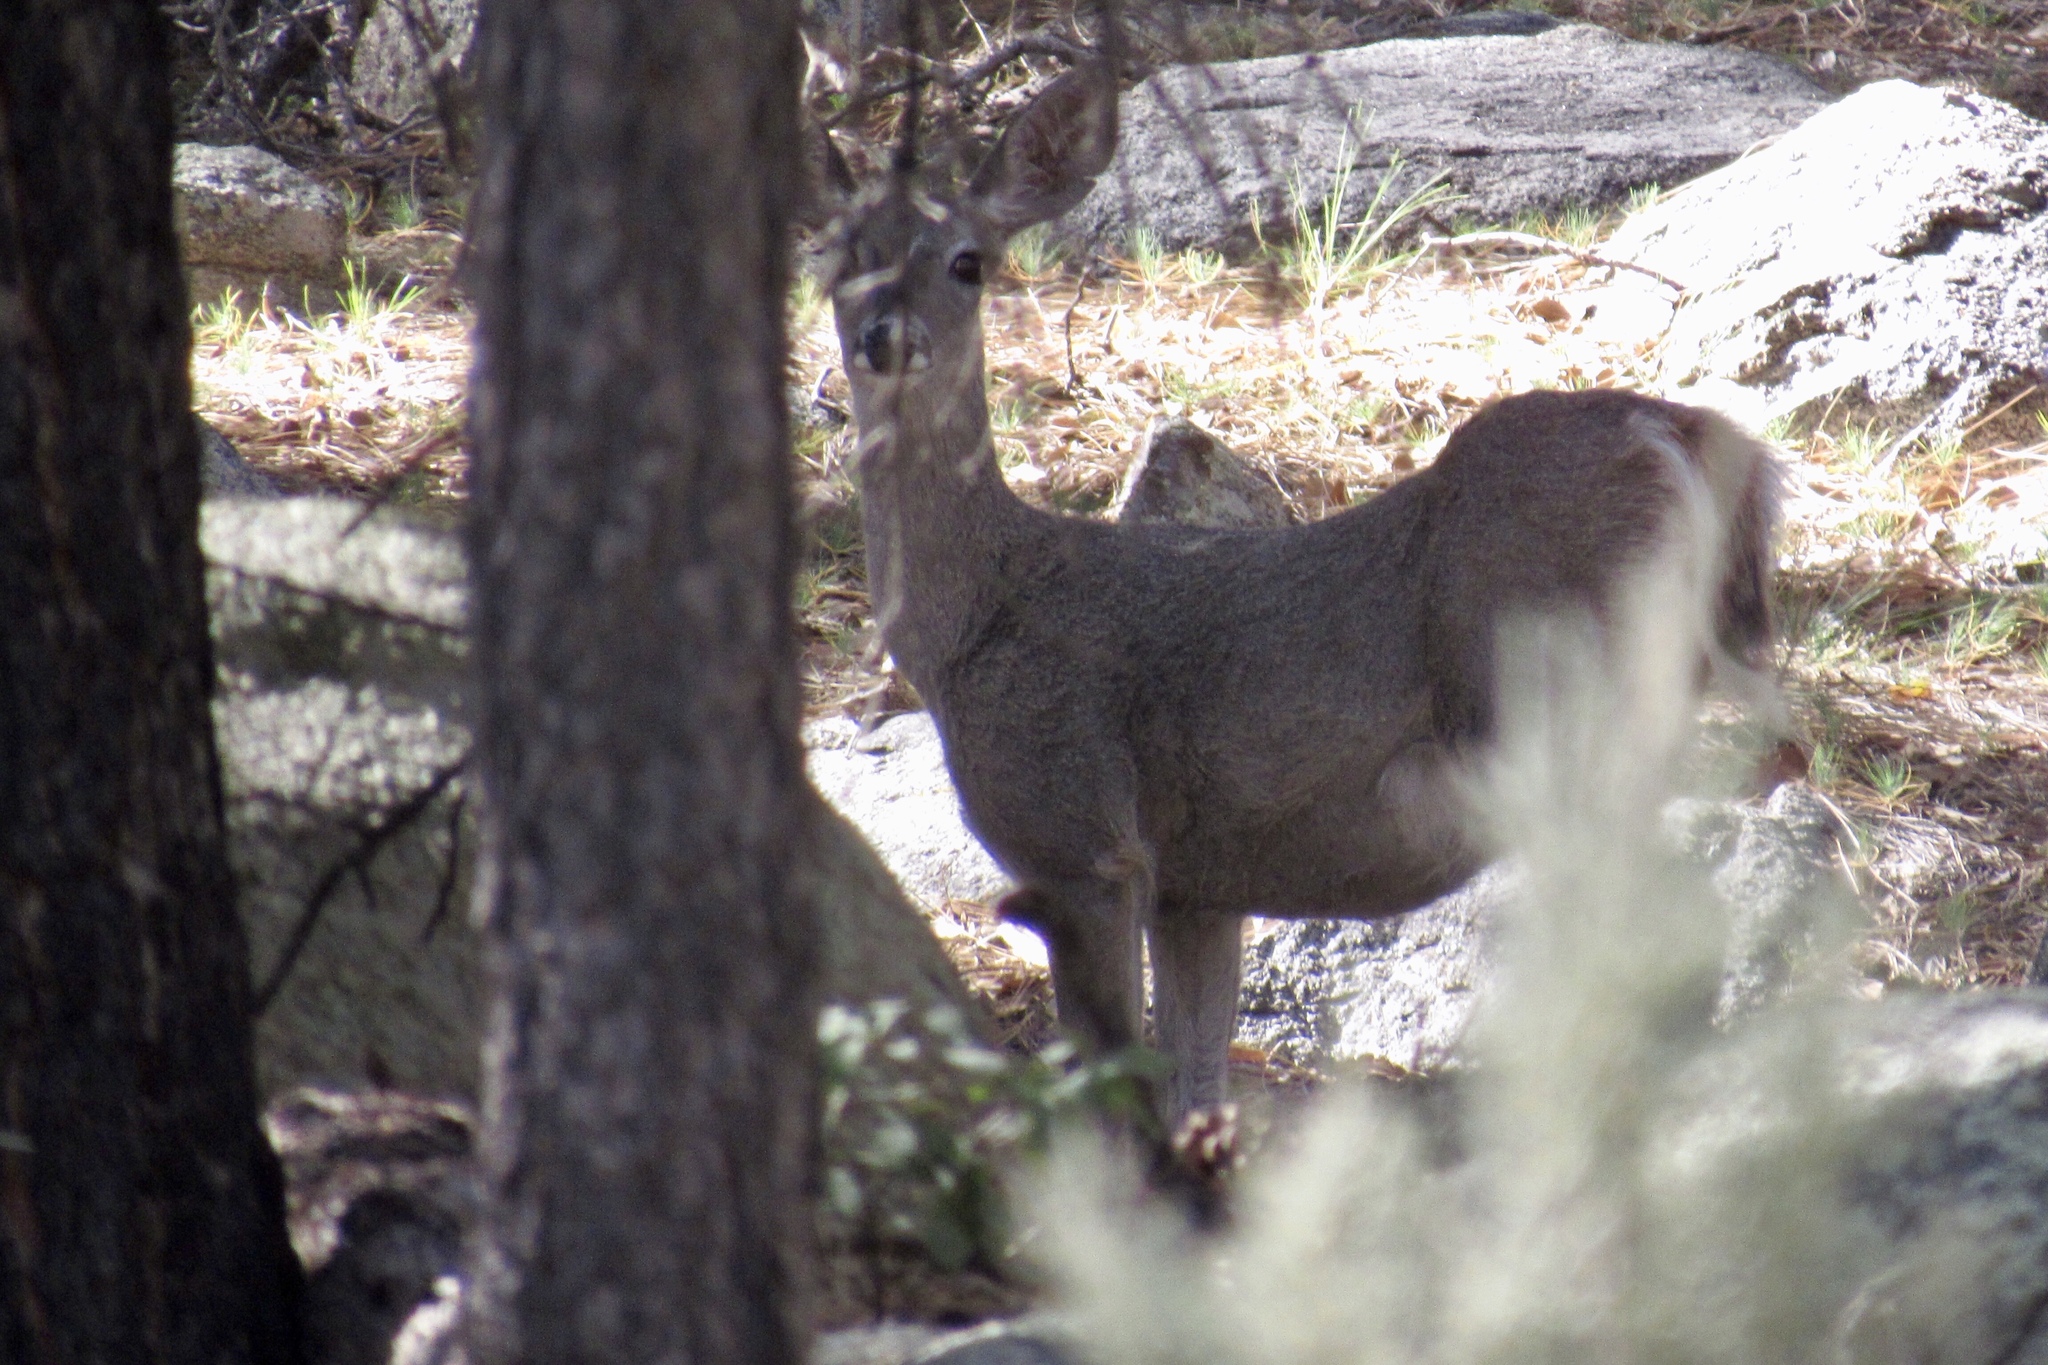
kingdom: Animalia
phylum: Chordata
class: Mammalia
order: Artiodactyla
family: Cervidae
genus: Odocoileus
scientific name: Odocoileus virginianus
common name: White-tailed deer
